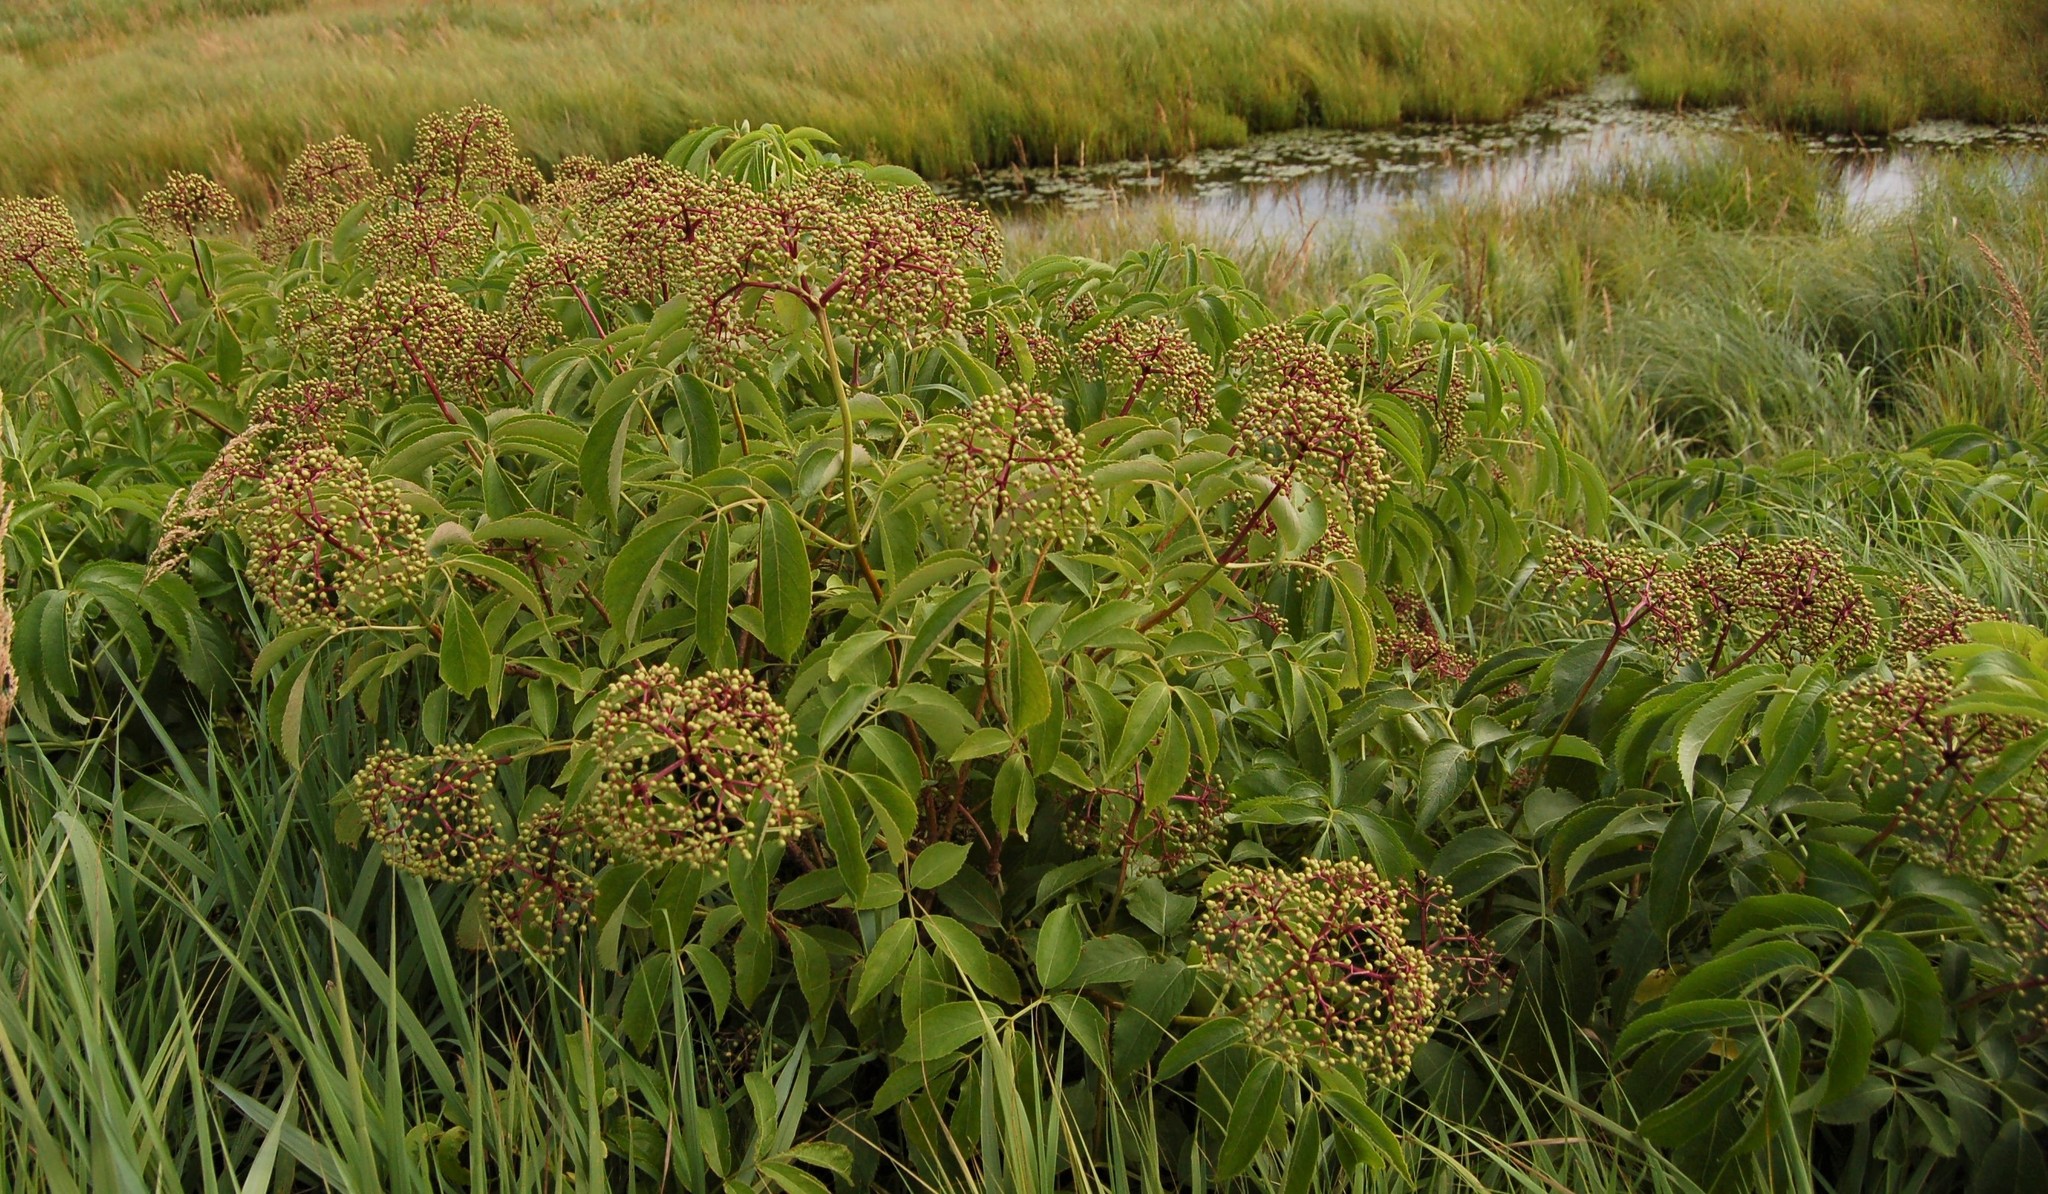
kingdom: Plantae
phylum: Tracheophyta
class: Magnoliopsida
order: Dipsacales
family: Viburnaceae
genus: Sambucus
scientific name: Sambucus canadensis
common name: American elder
